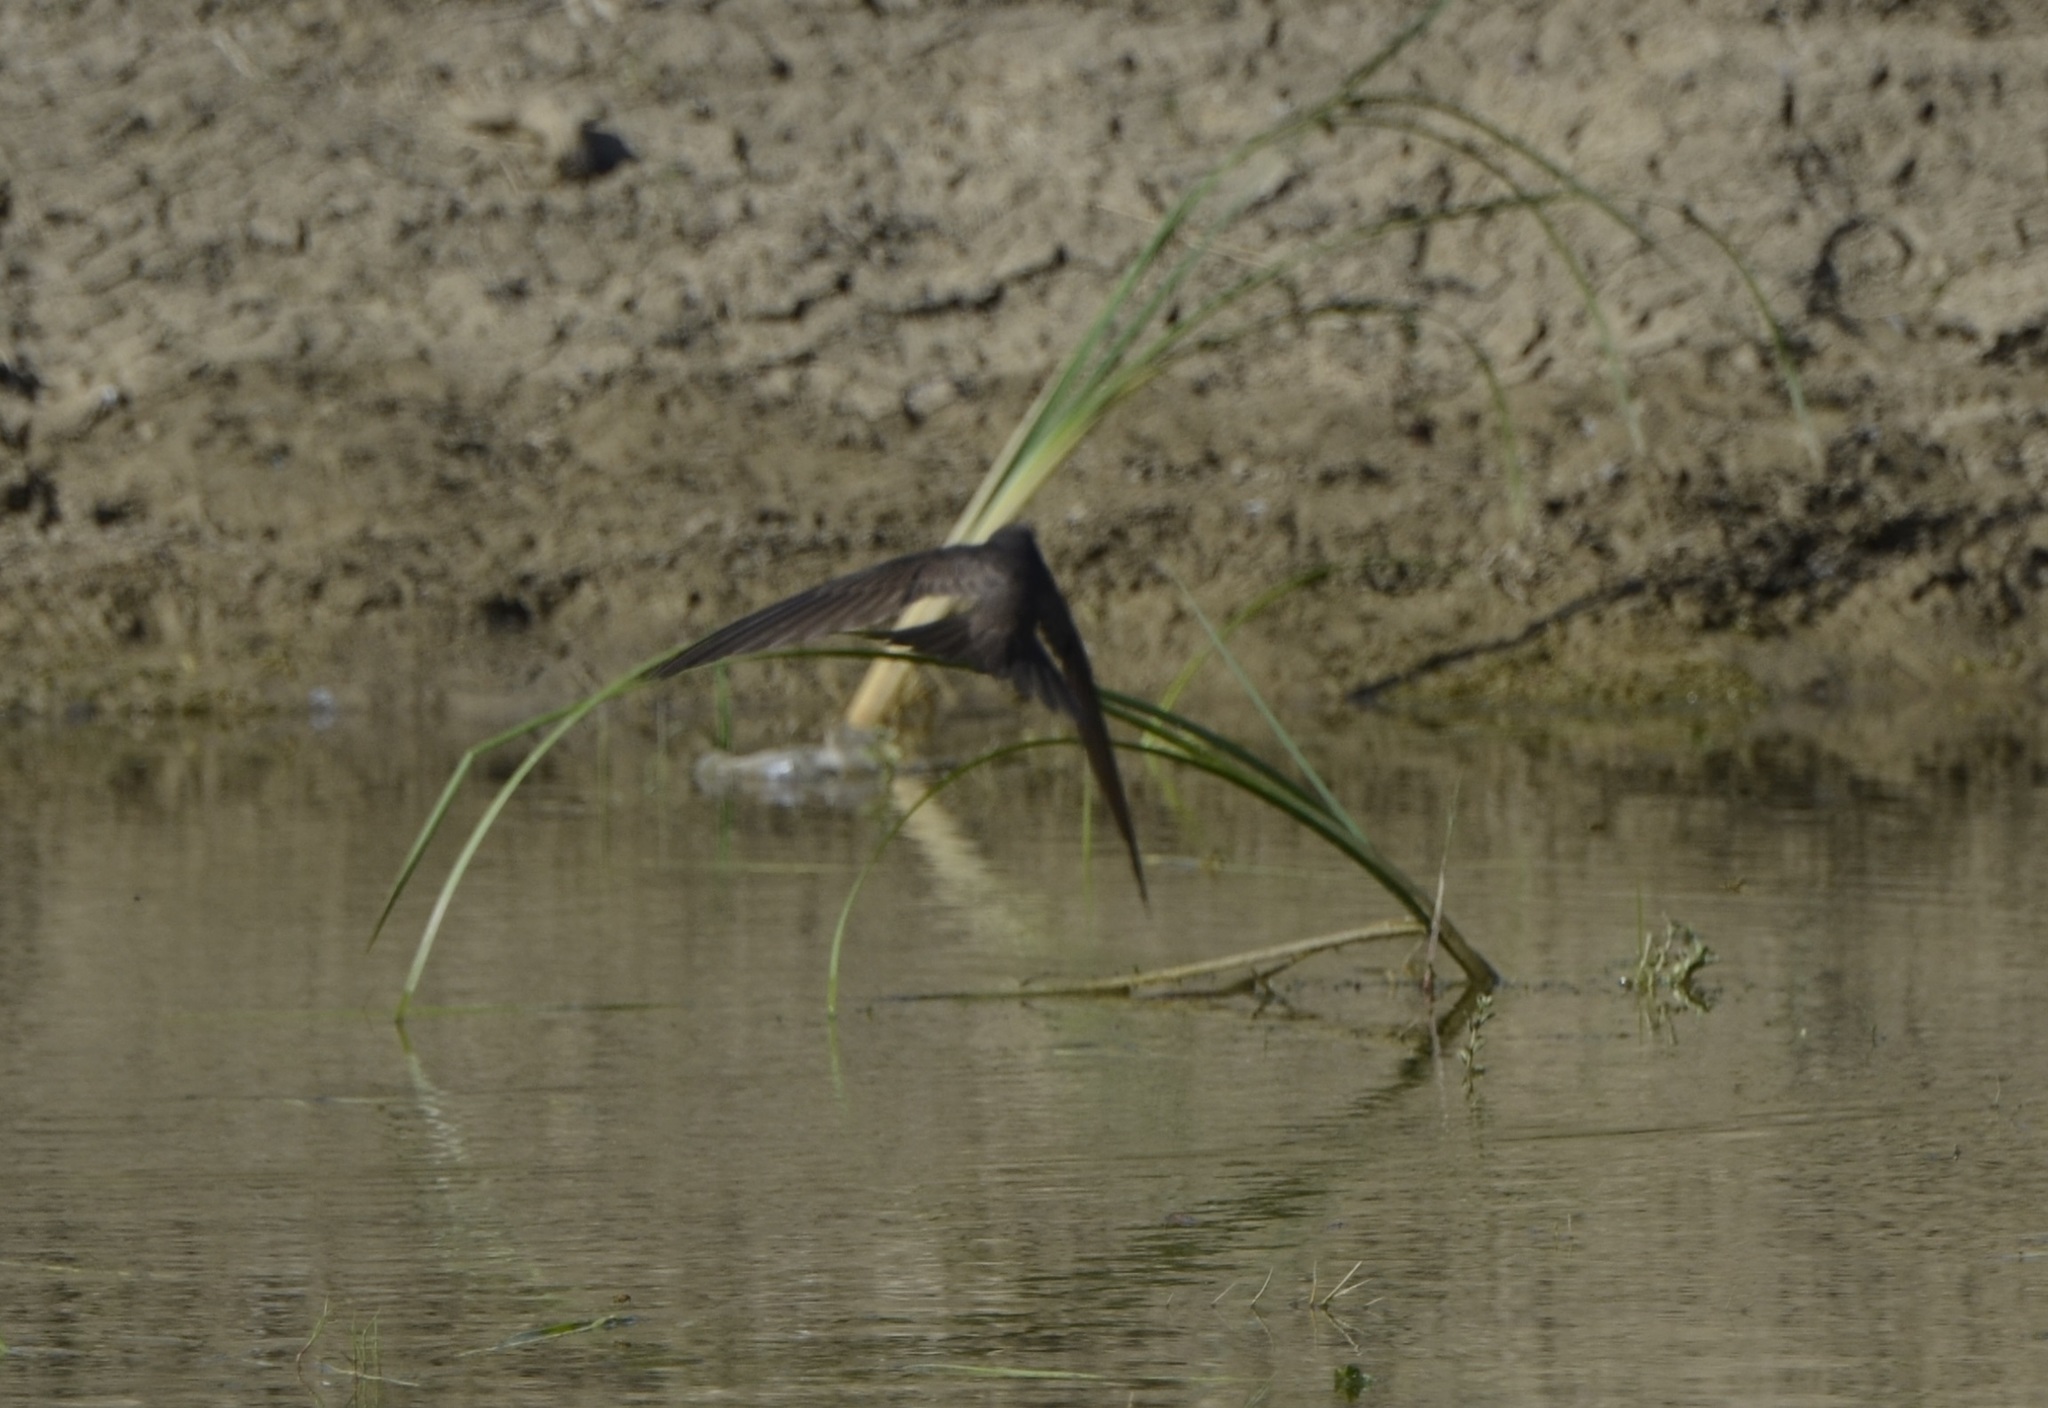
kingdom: Animalia
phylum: Chordata
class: Aves
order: Apodiformes
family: Apodidae
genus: Apus
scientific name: Apus apus
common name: Common swift
